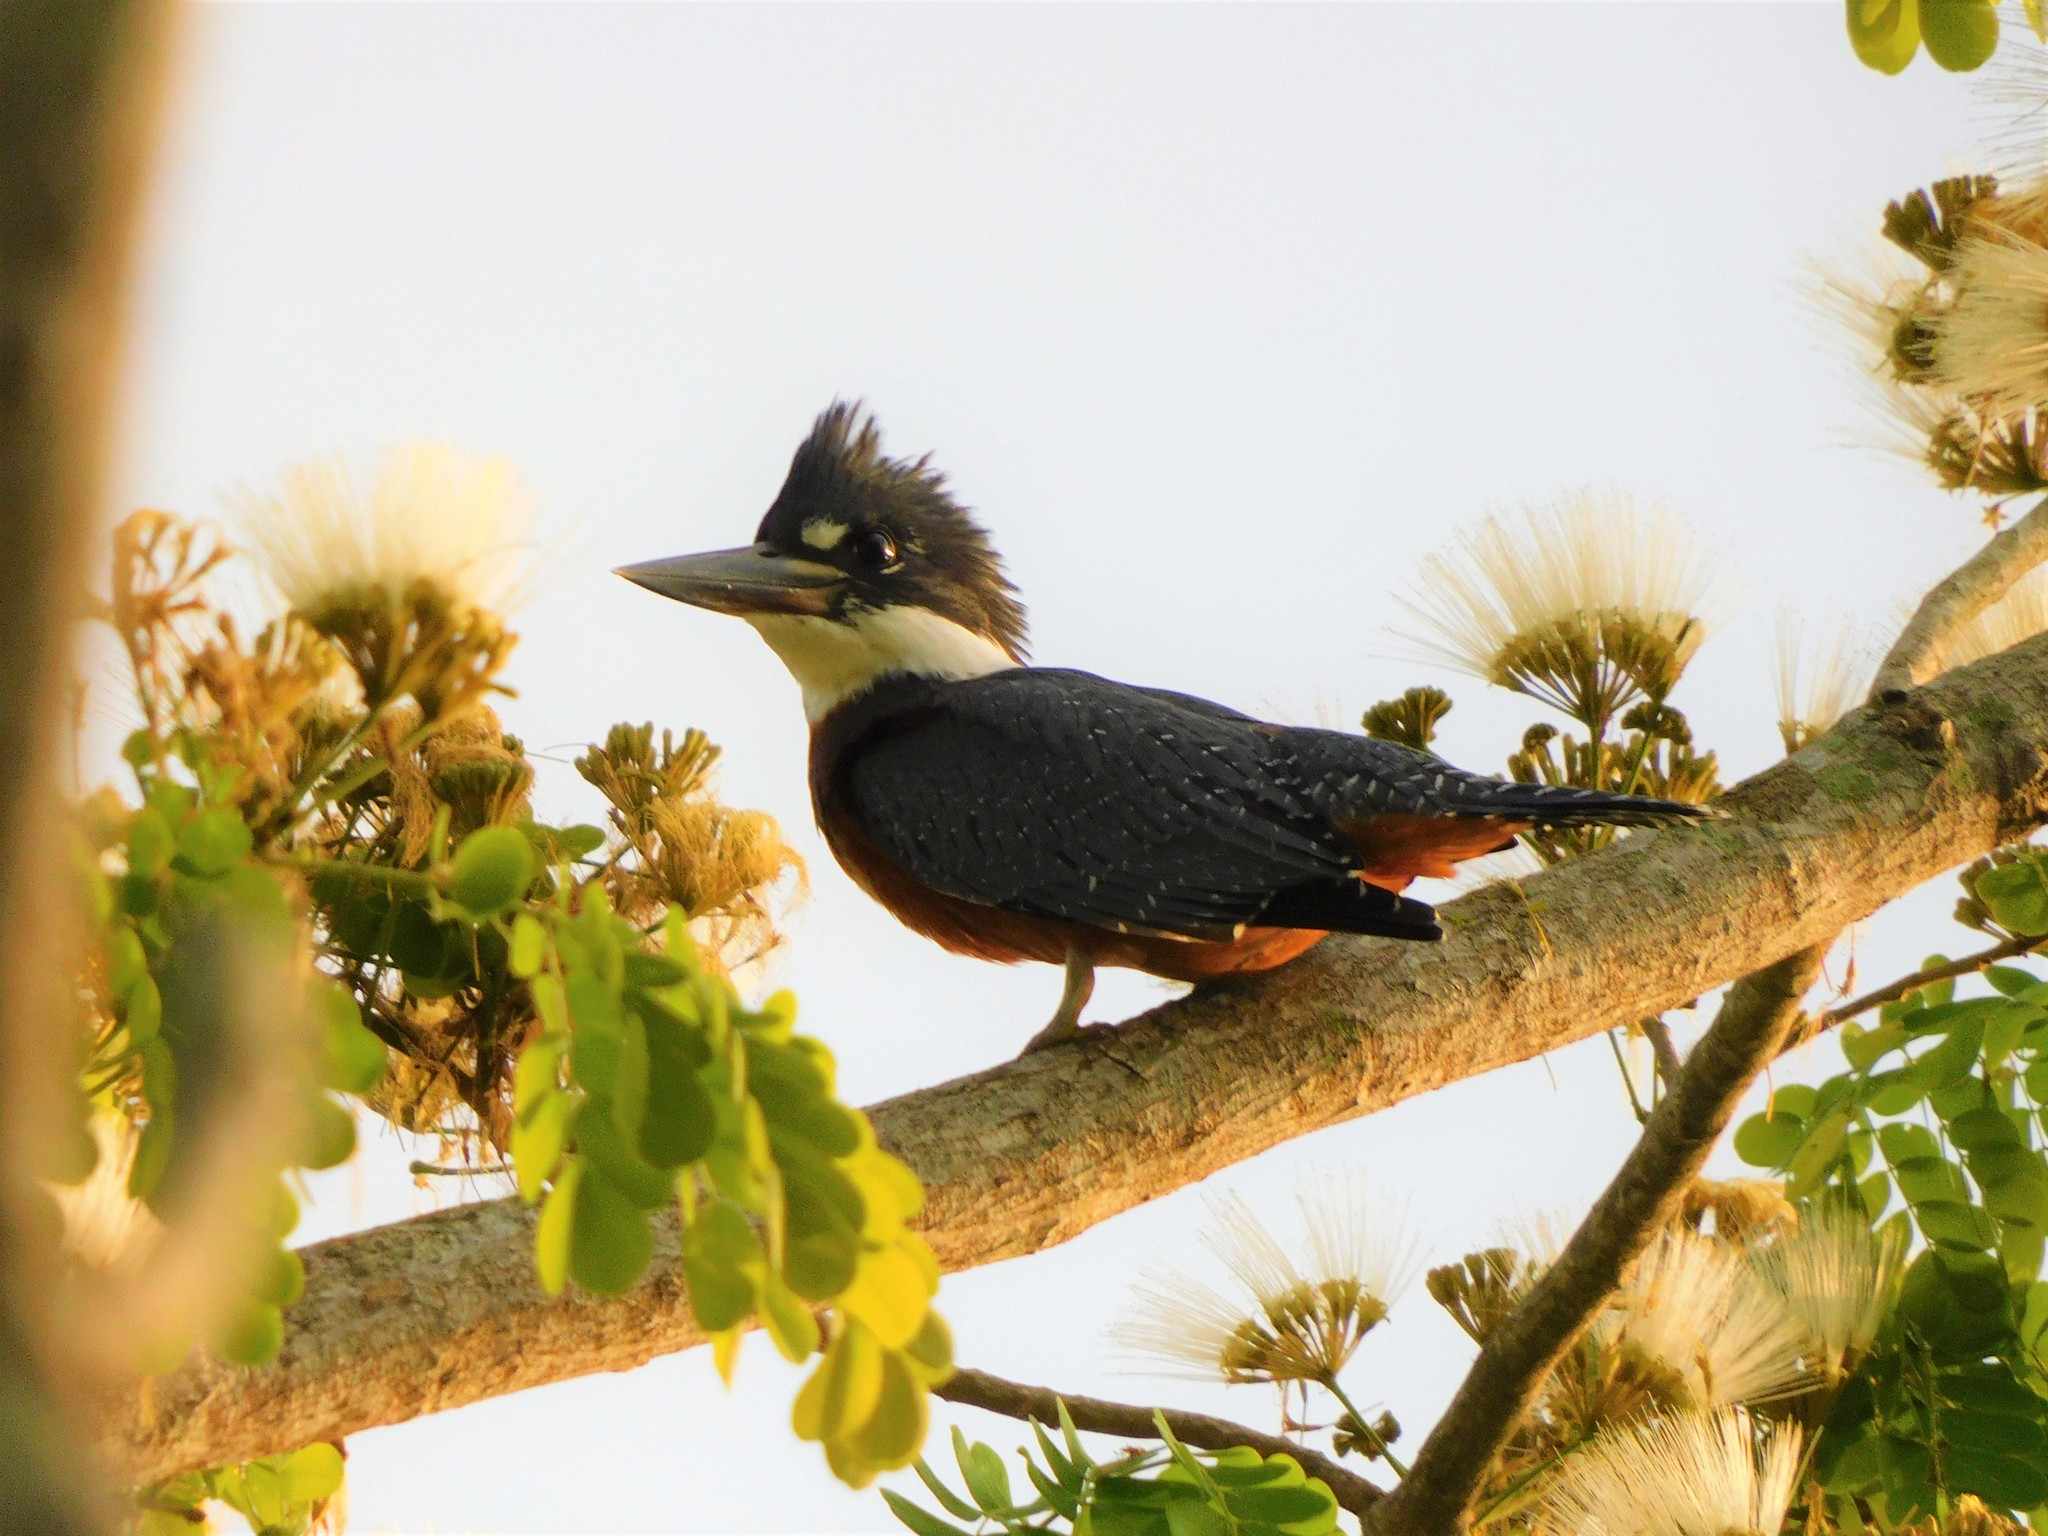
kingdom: Animalia
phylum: Chordata
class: Aves
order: Coraciiformes
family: Alcedinidae
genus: Megaceryle
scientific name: Megaceryle torquata
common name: Ringed kingfisher
